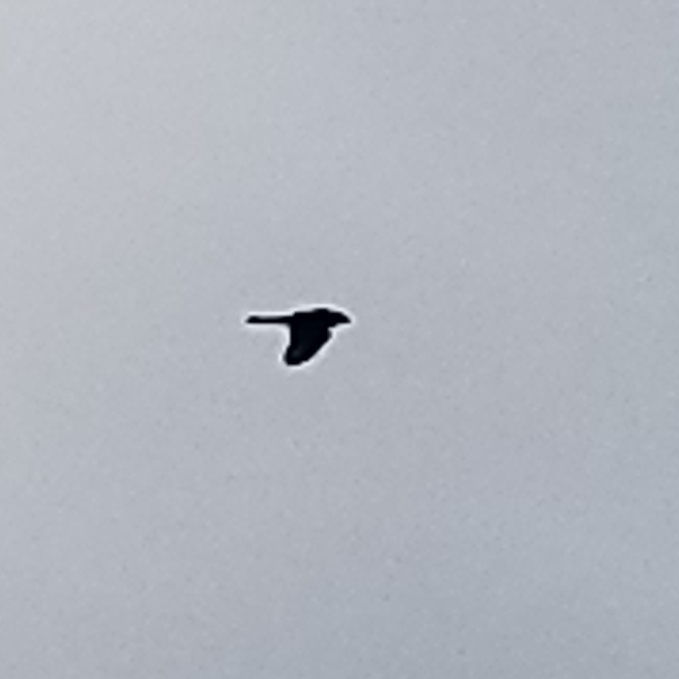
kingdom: Animalia
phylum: Chordata
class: Aves
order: Accipitriformes
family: Accipitridae
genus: Accipiter
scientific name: Accipiter cooperii
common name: Cooper's hawk
